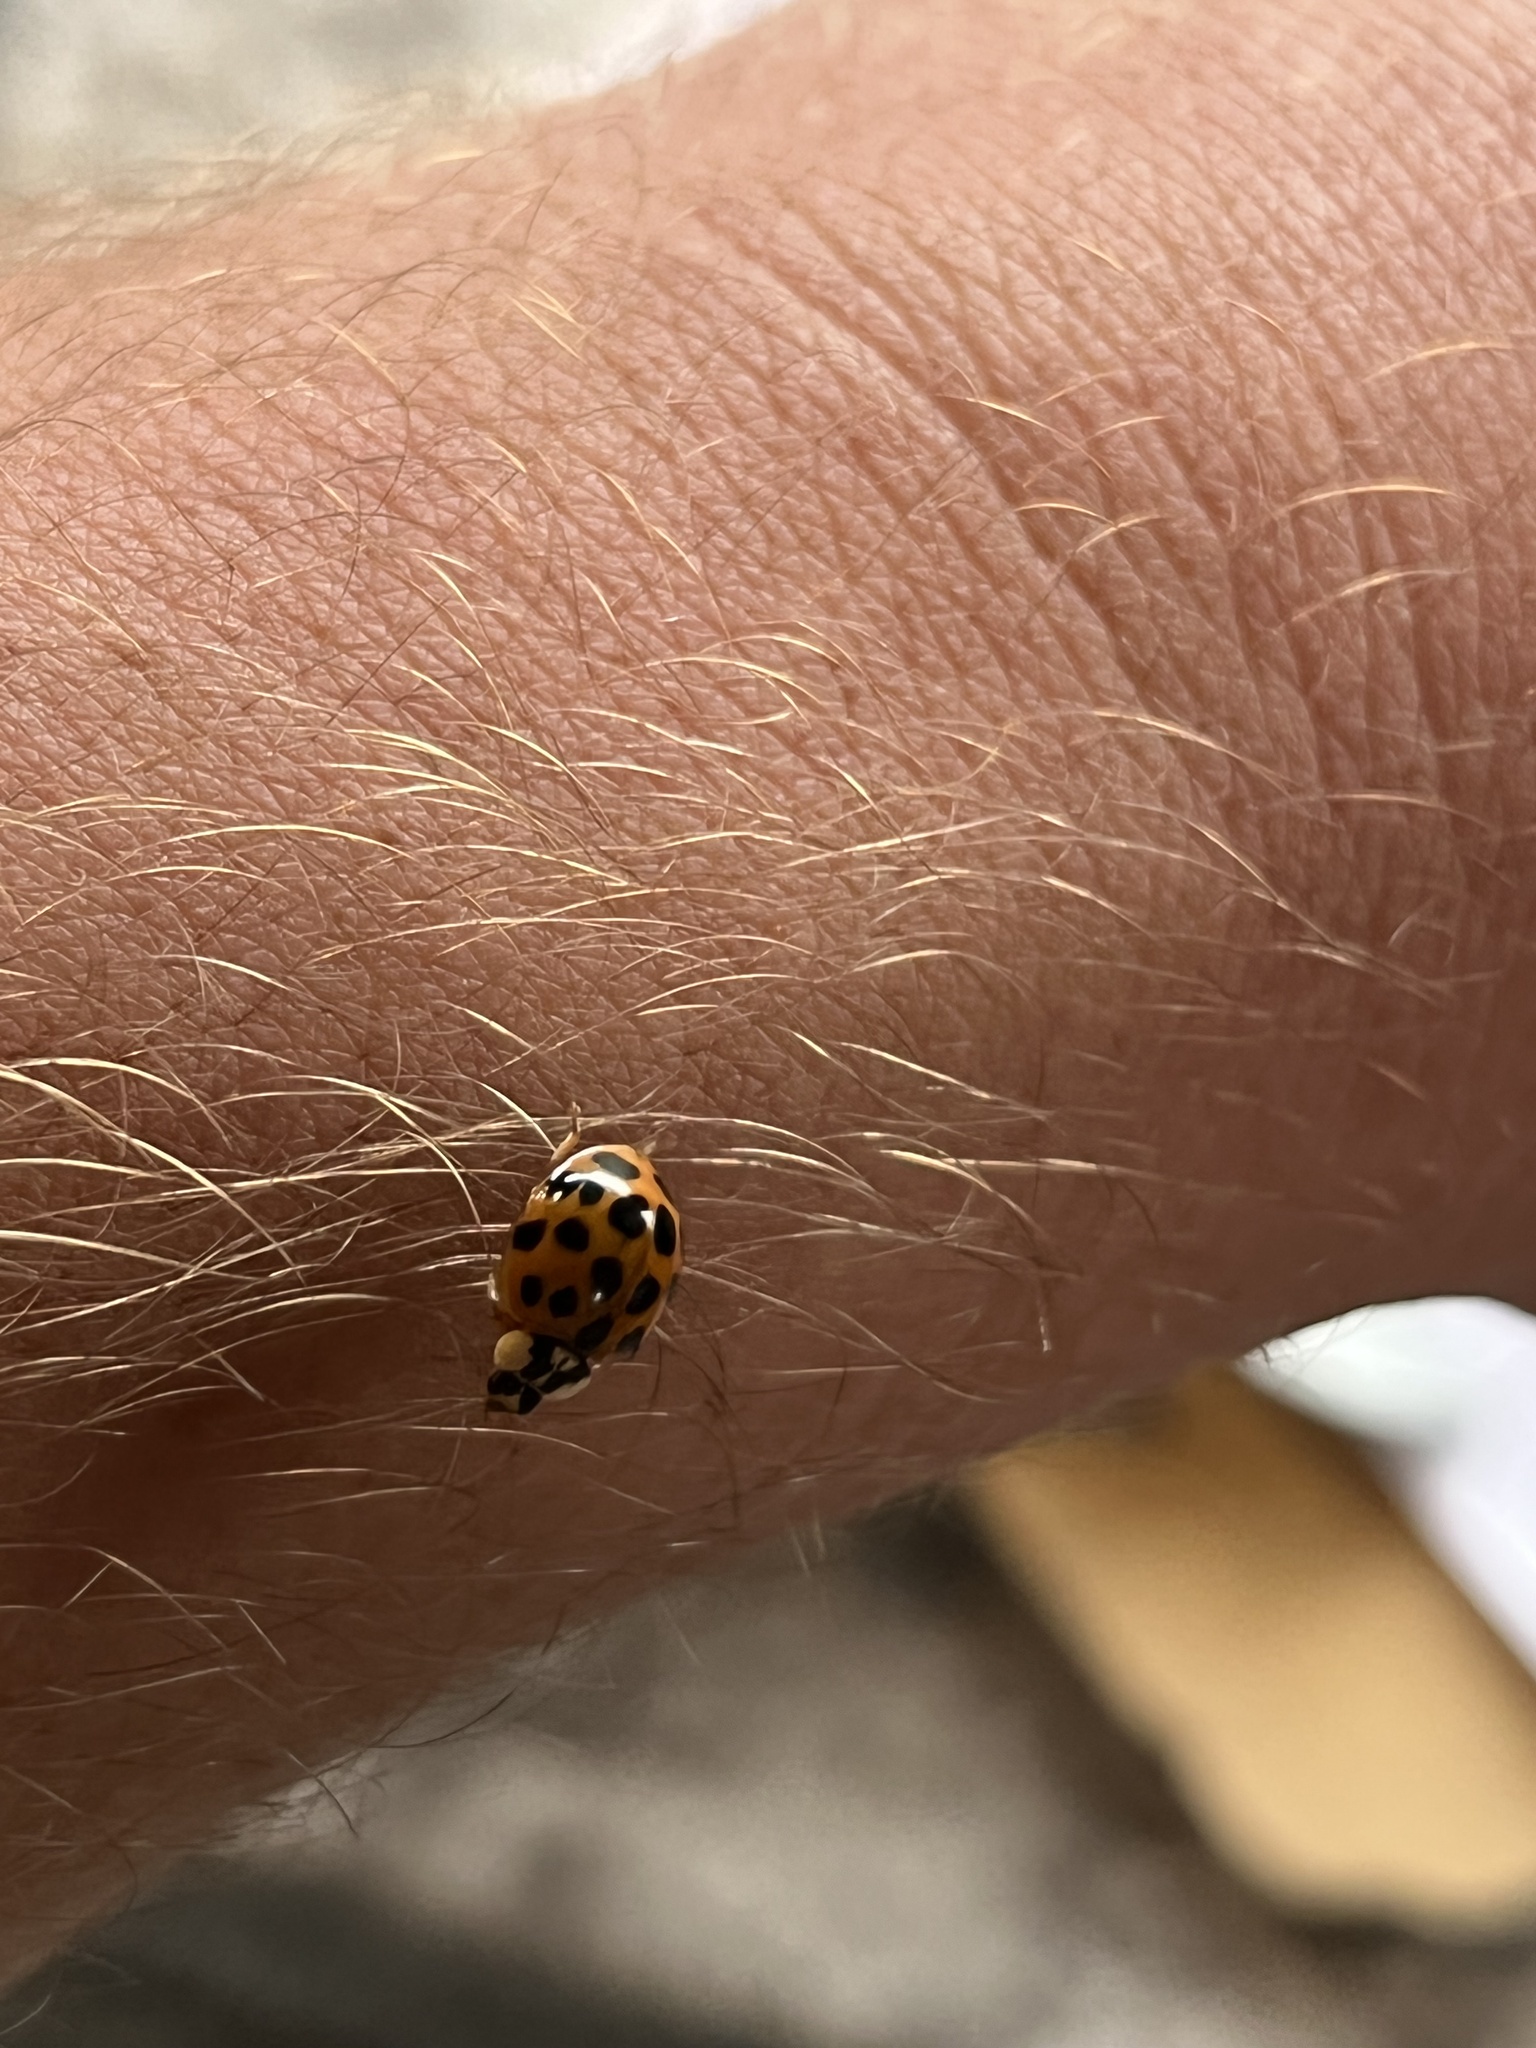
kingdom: Animalia
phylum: Arthropoda
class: Insecta
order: Coleoptera
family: Coccinellidae
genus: Harmonia
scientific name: Harmonia axyridis
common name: Harlequin ladybird
